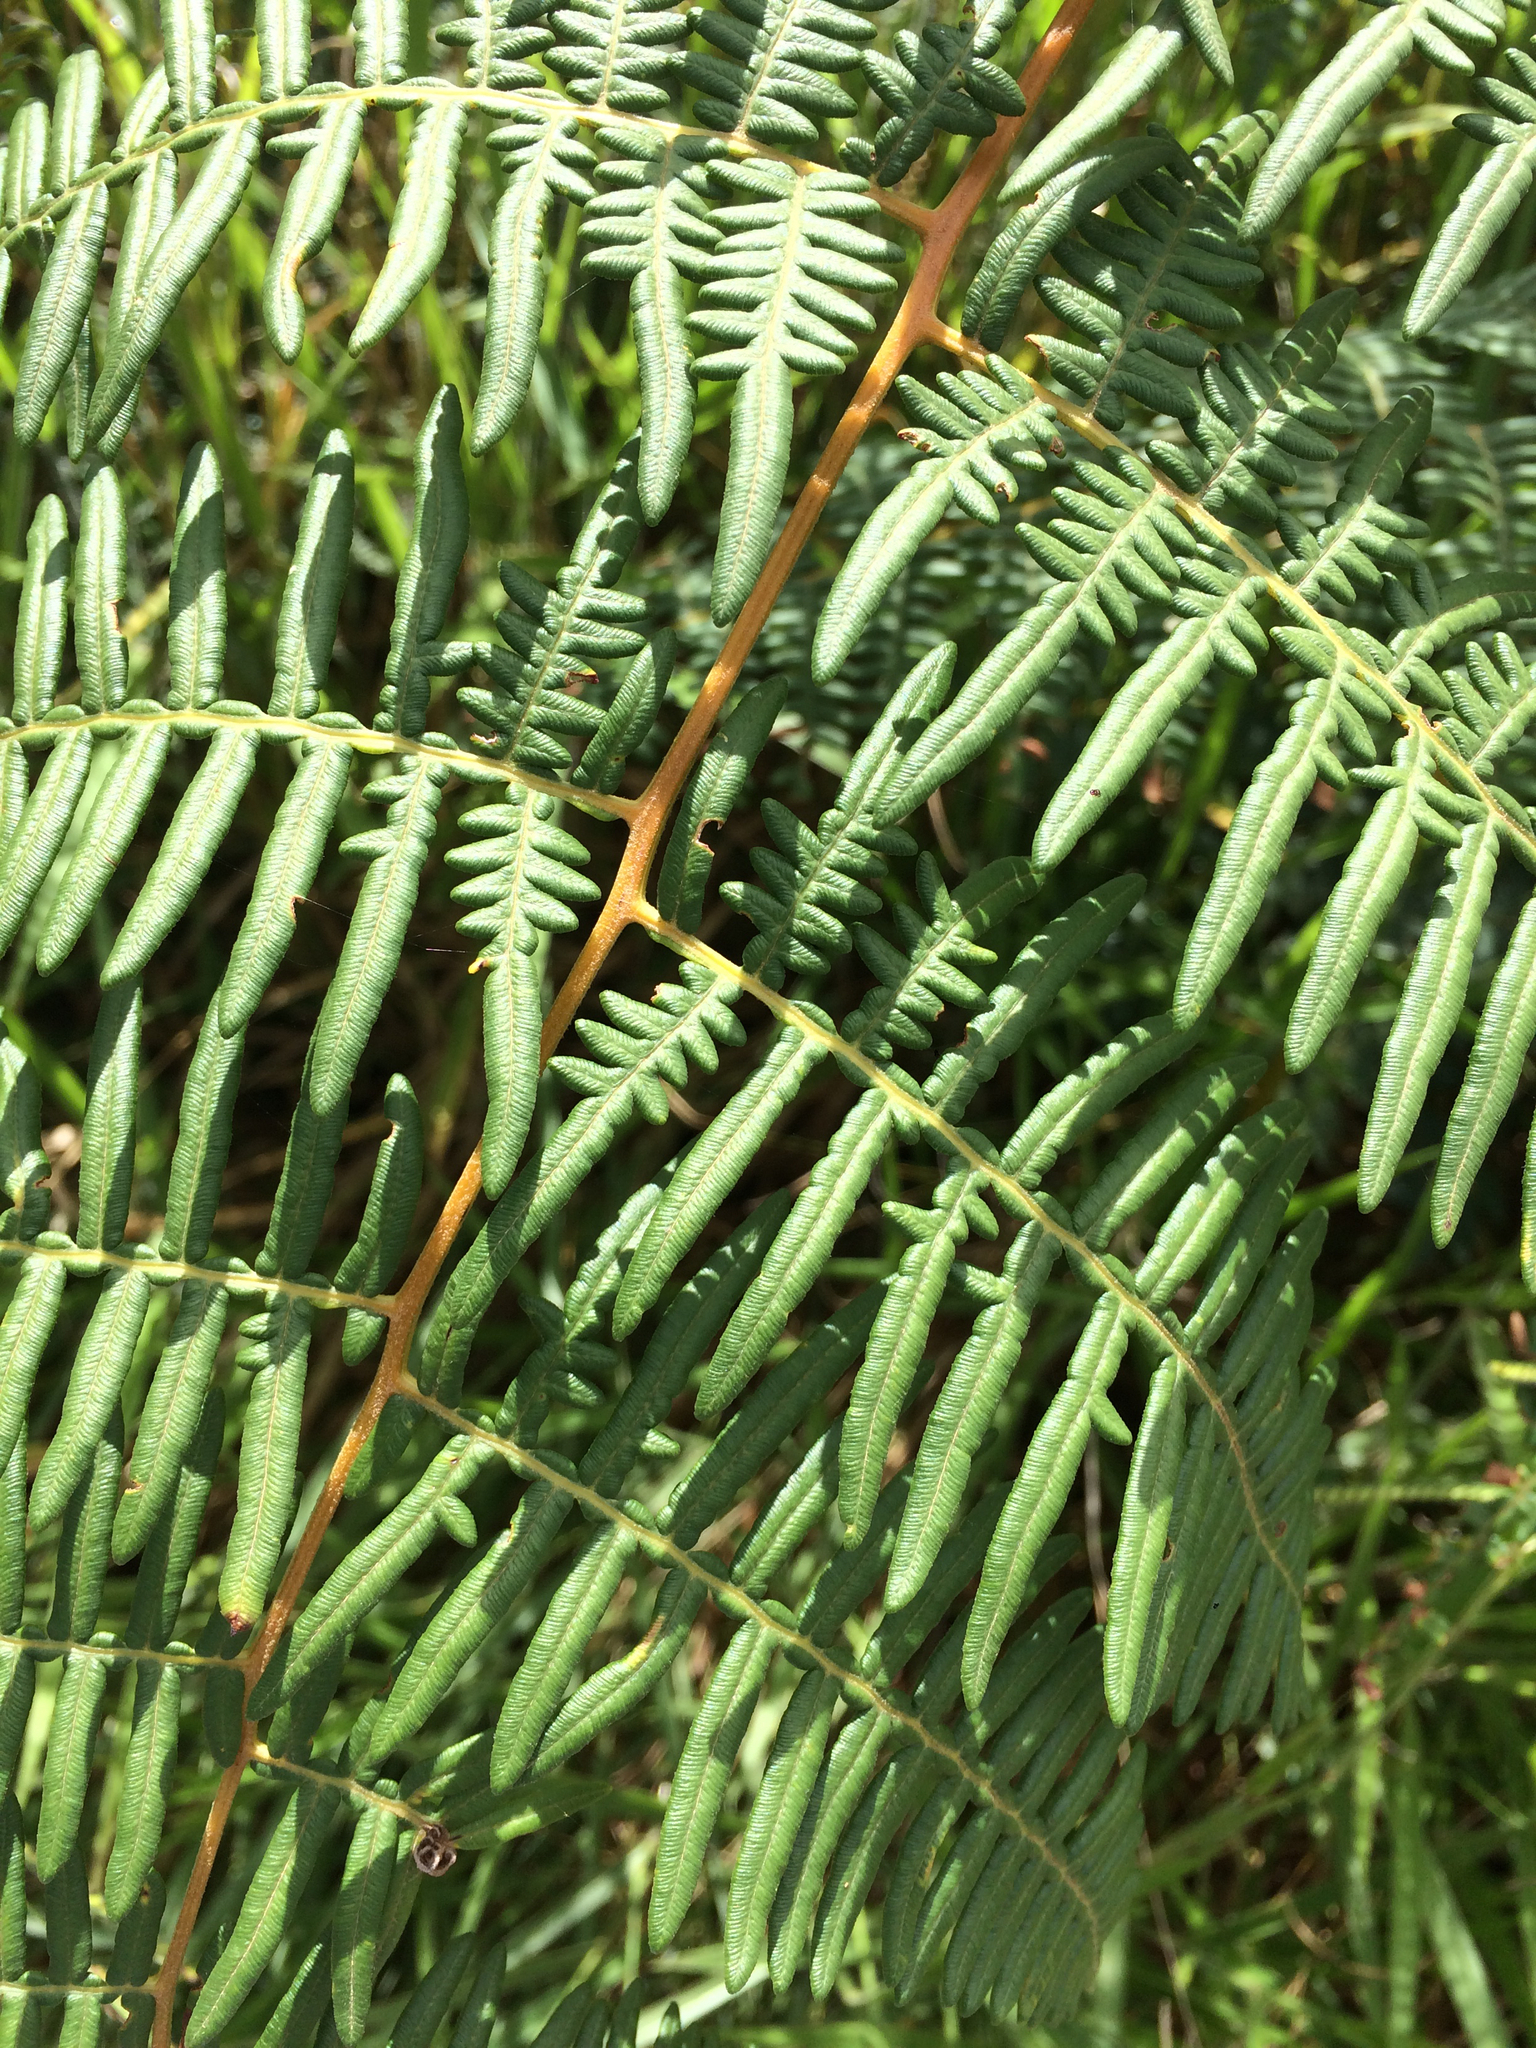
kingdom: Plantae
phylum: Tracheophyta
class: Polypodiopsida
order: Polypodiales
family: Dennstaedtiaceae
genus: Pteridium
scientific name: Pteridium esculentum
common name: Bracken fern
